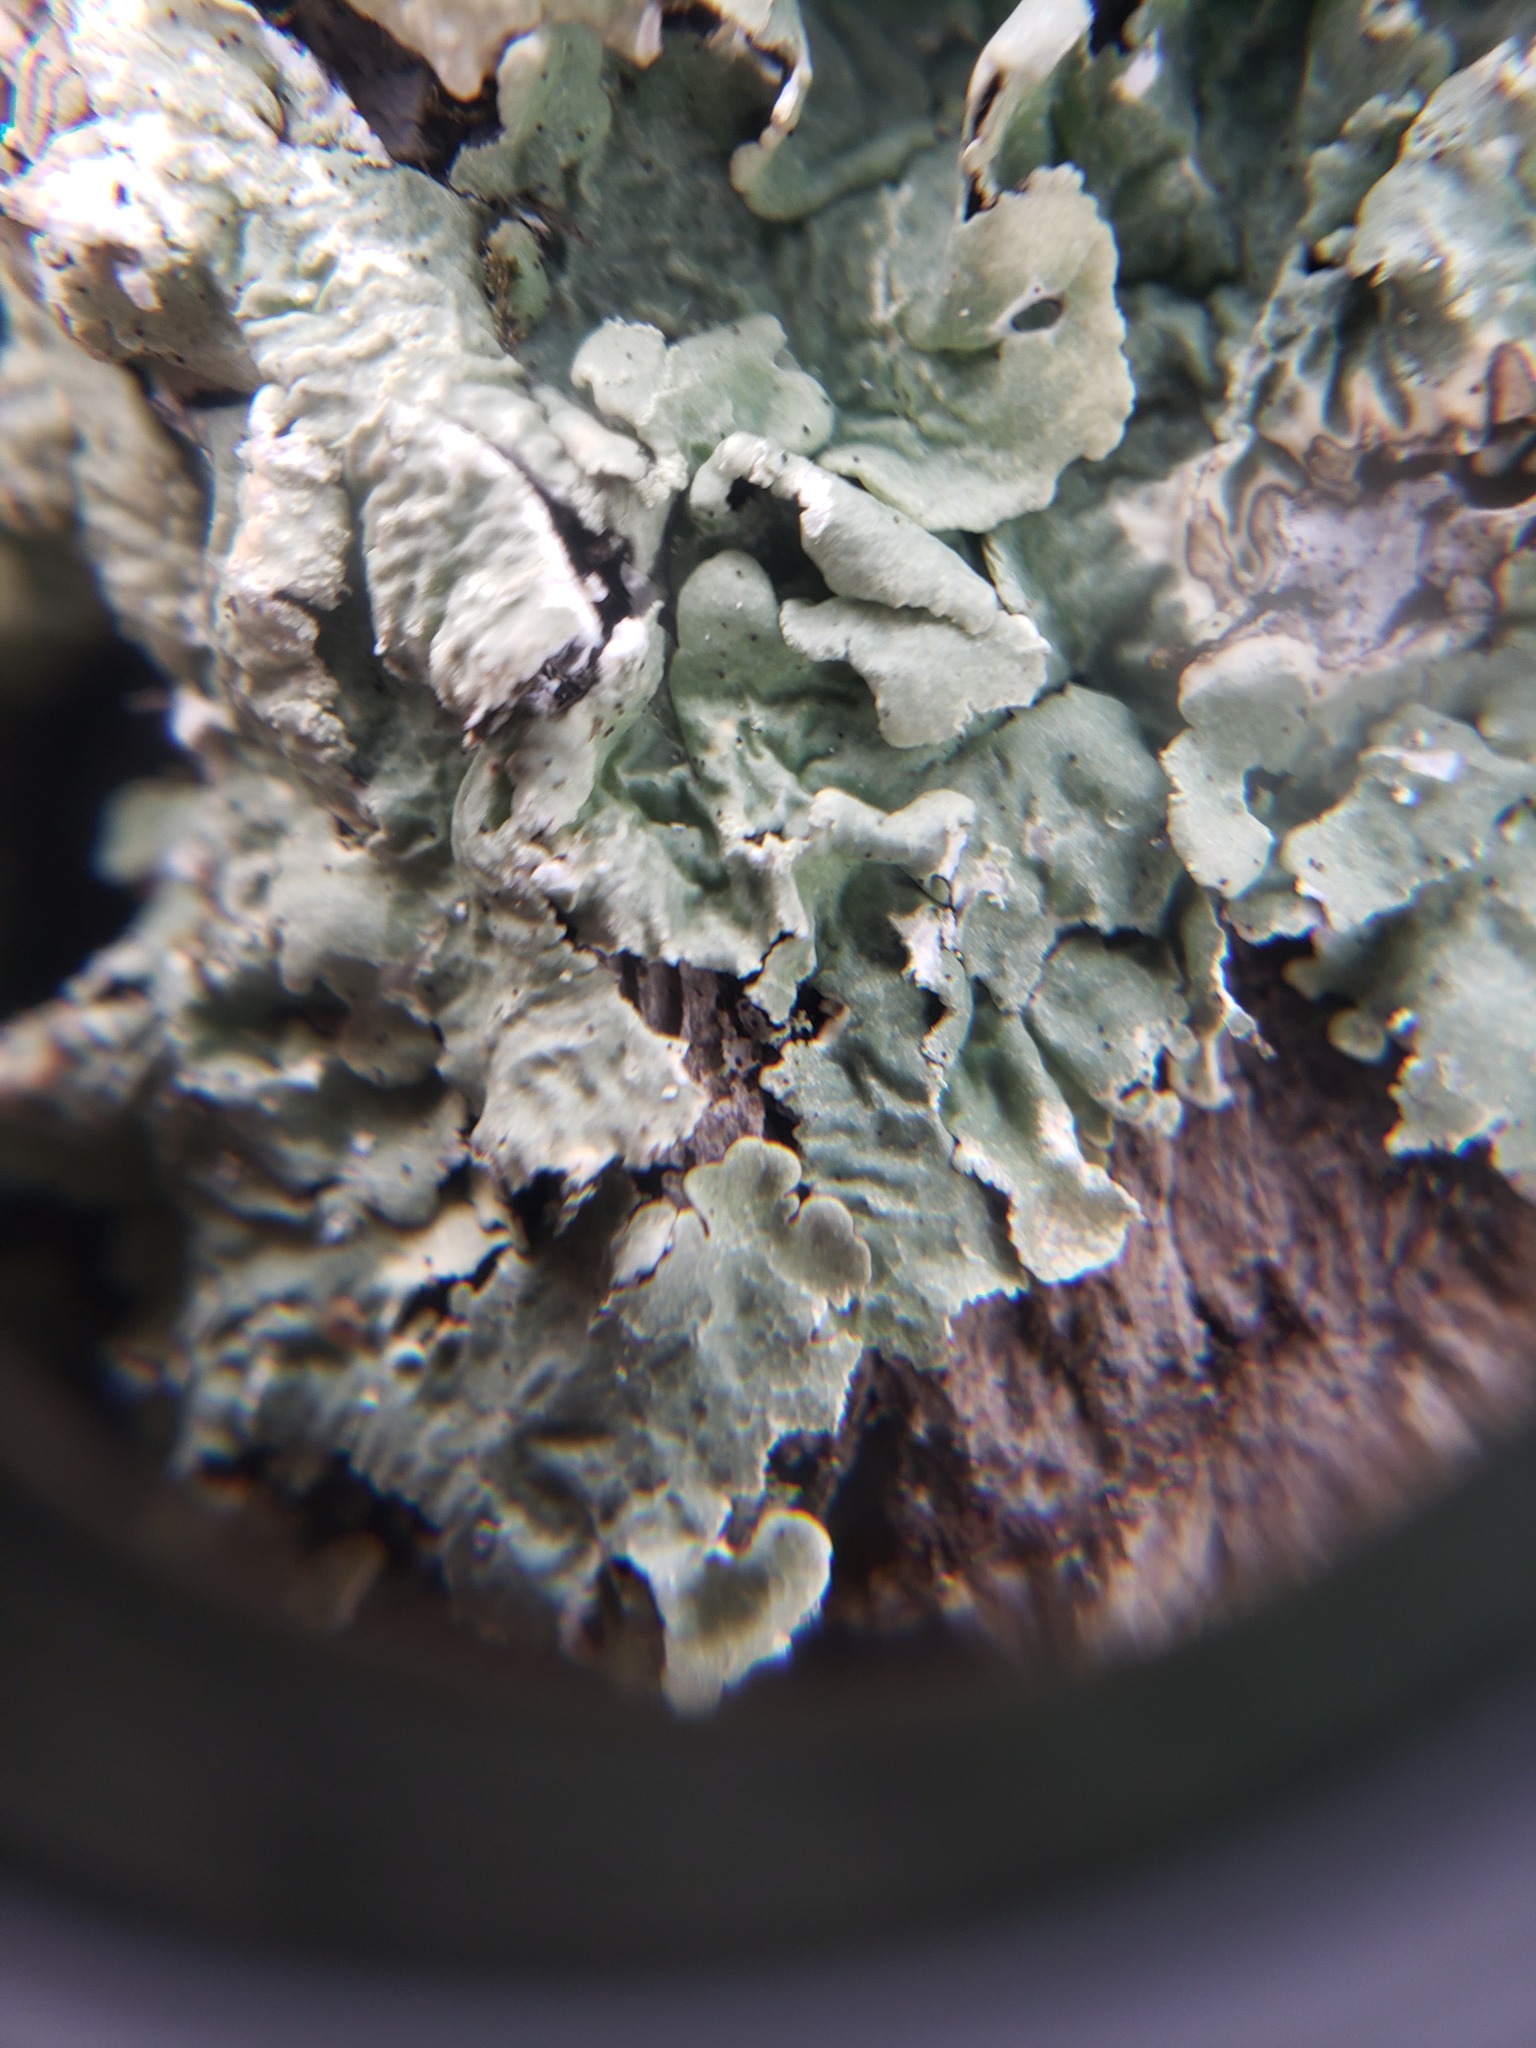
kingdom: Fungi
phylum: Ascomycota
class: Lecanoromycetes
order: Lecanorales
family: Parmeliaceae
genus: Flavoparmelia
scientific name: Flavoparmelia caperata
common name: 40-mile per hour lichen
